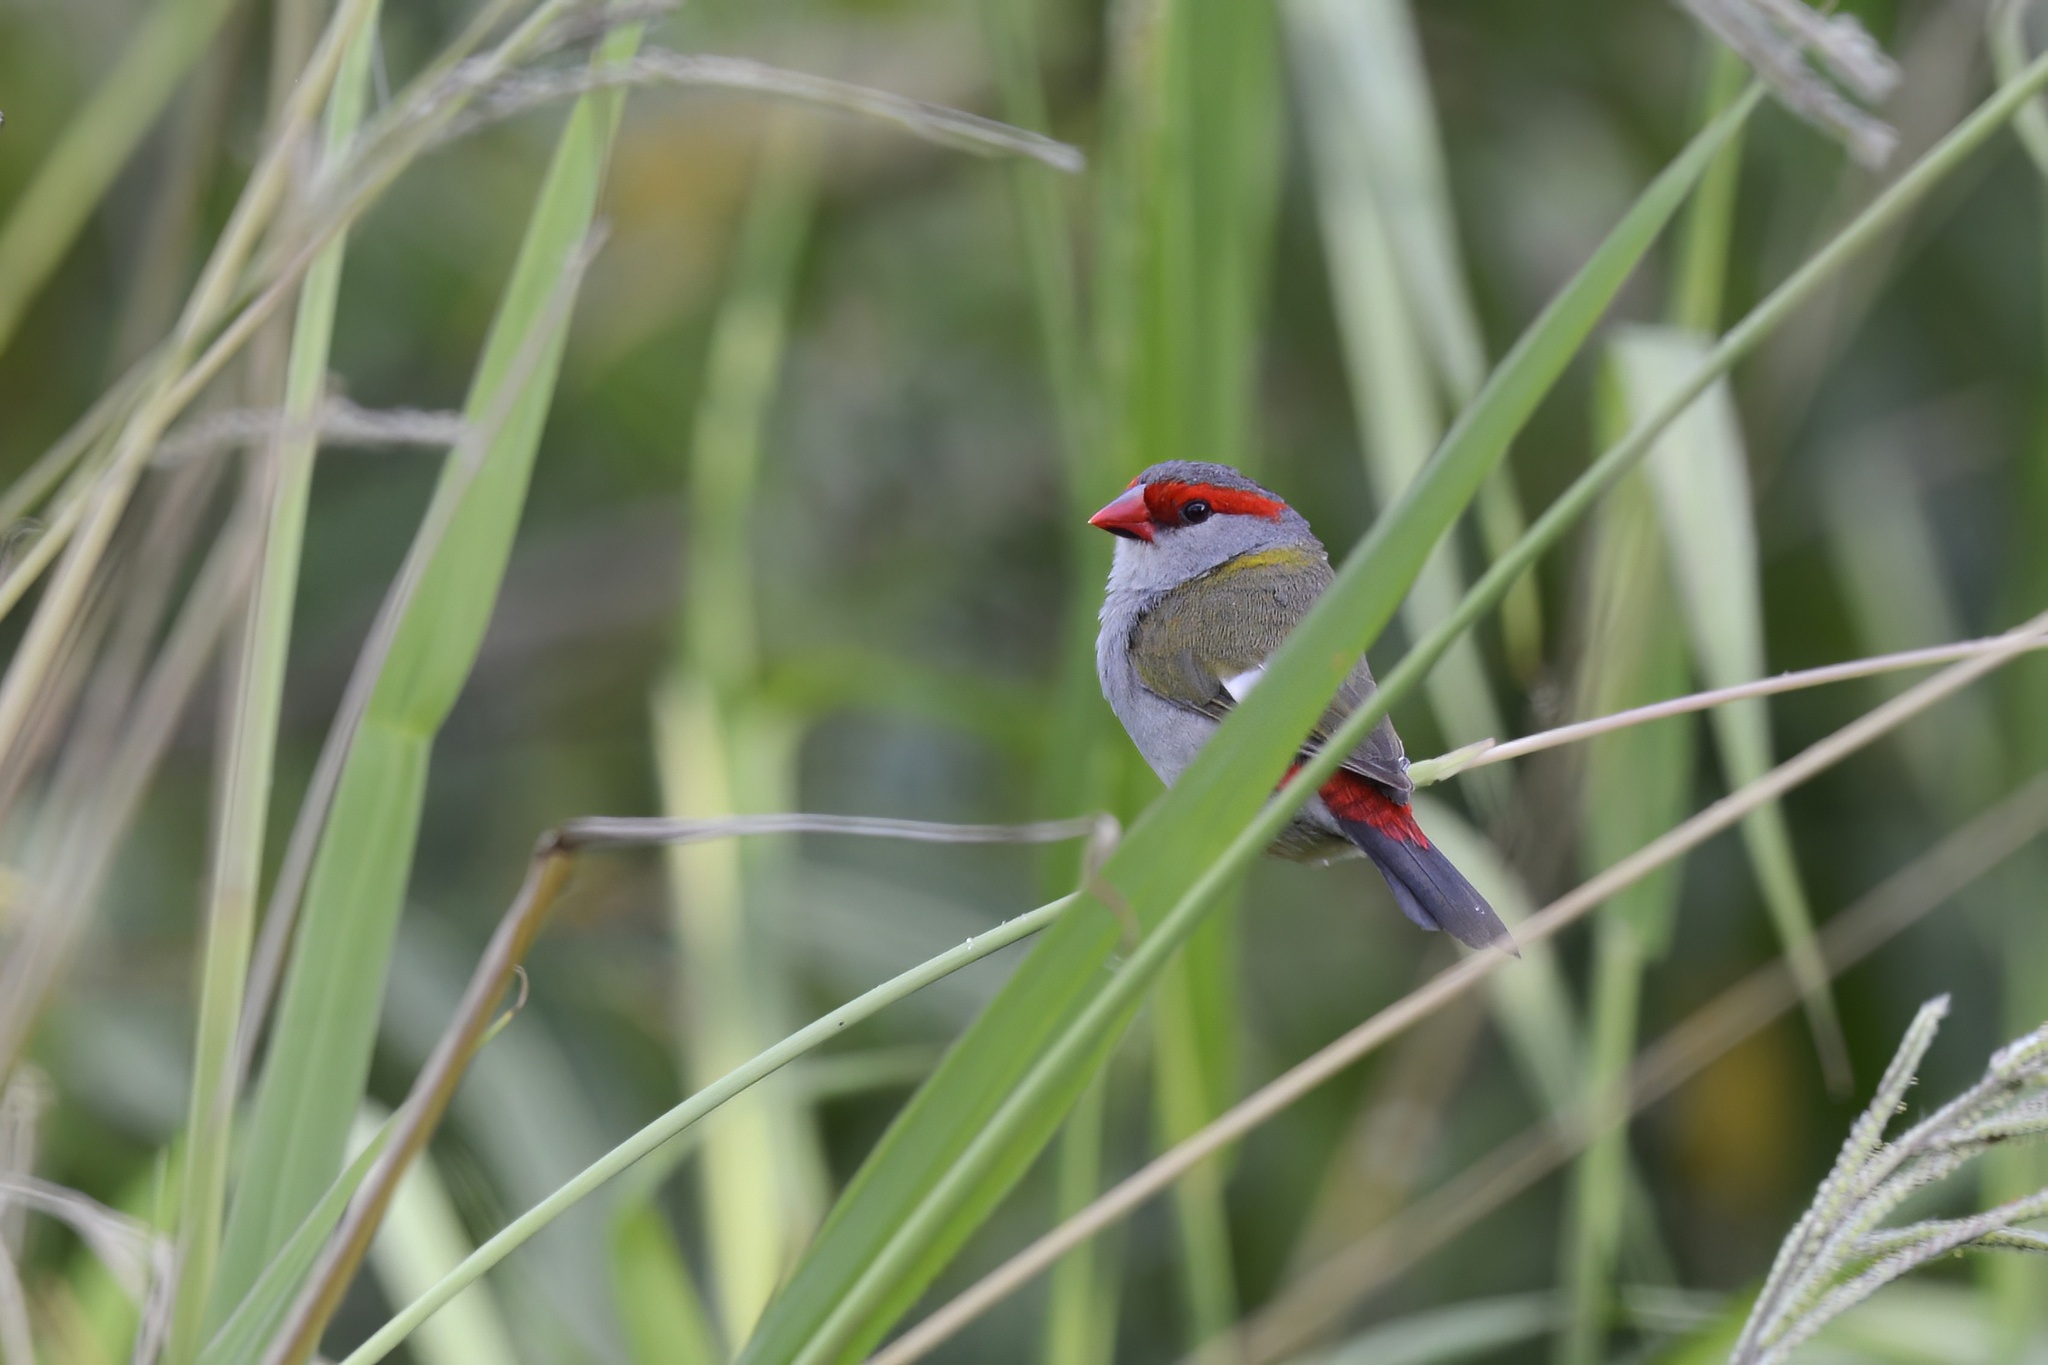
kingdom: Animalia
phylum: Chordata
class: Aves
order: Passeriformes
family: Estrildidae
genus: Neochmia
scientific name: Neochmia temporalis
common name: Red-browed finch
